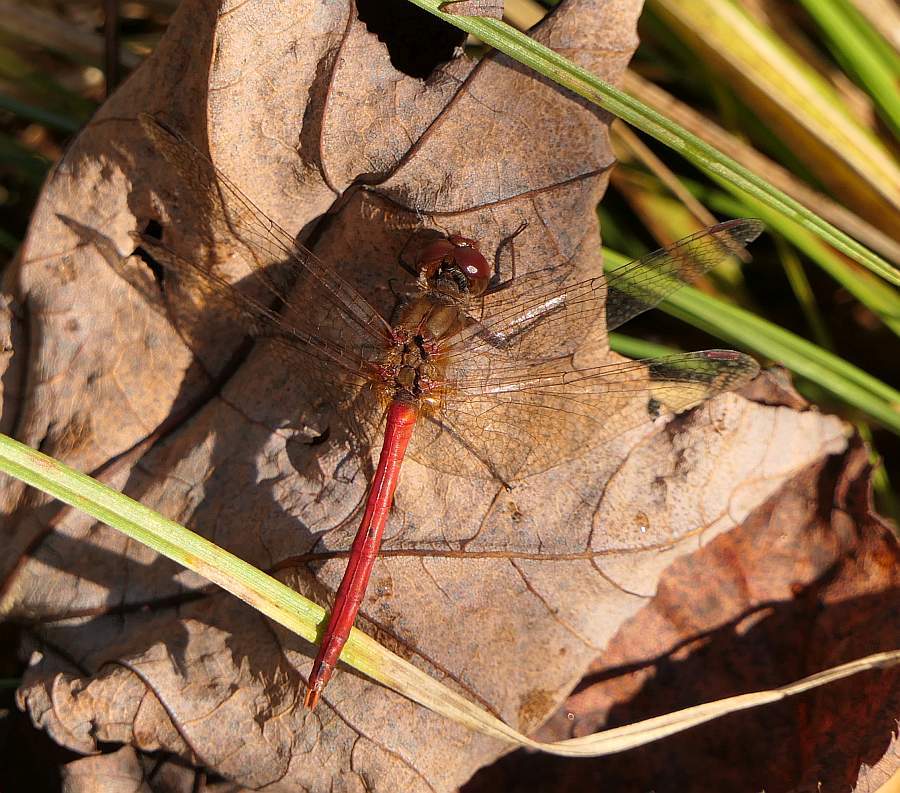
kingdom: Animalia
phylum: Arthropoda
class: Insecta
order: Odonata
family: Libellulidae
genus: Sympetrum
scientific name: Sympetrum vicinum
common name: Autumn meadowhawk
